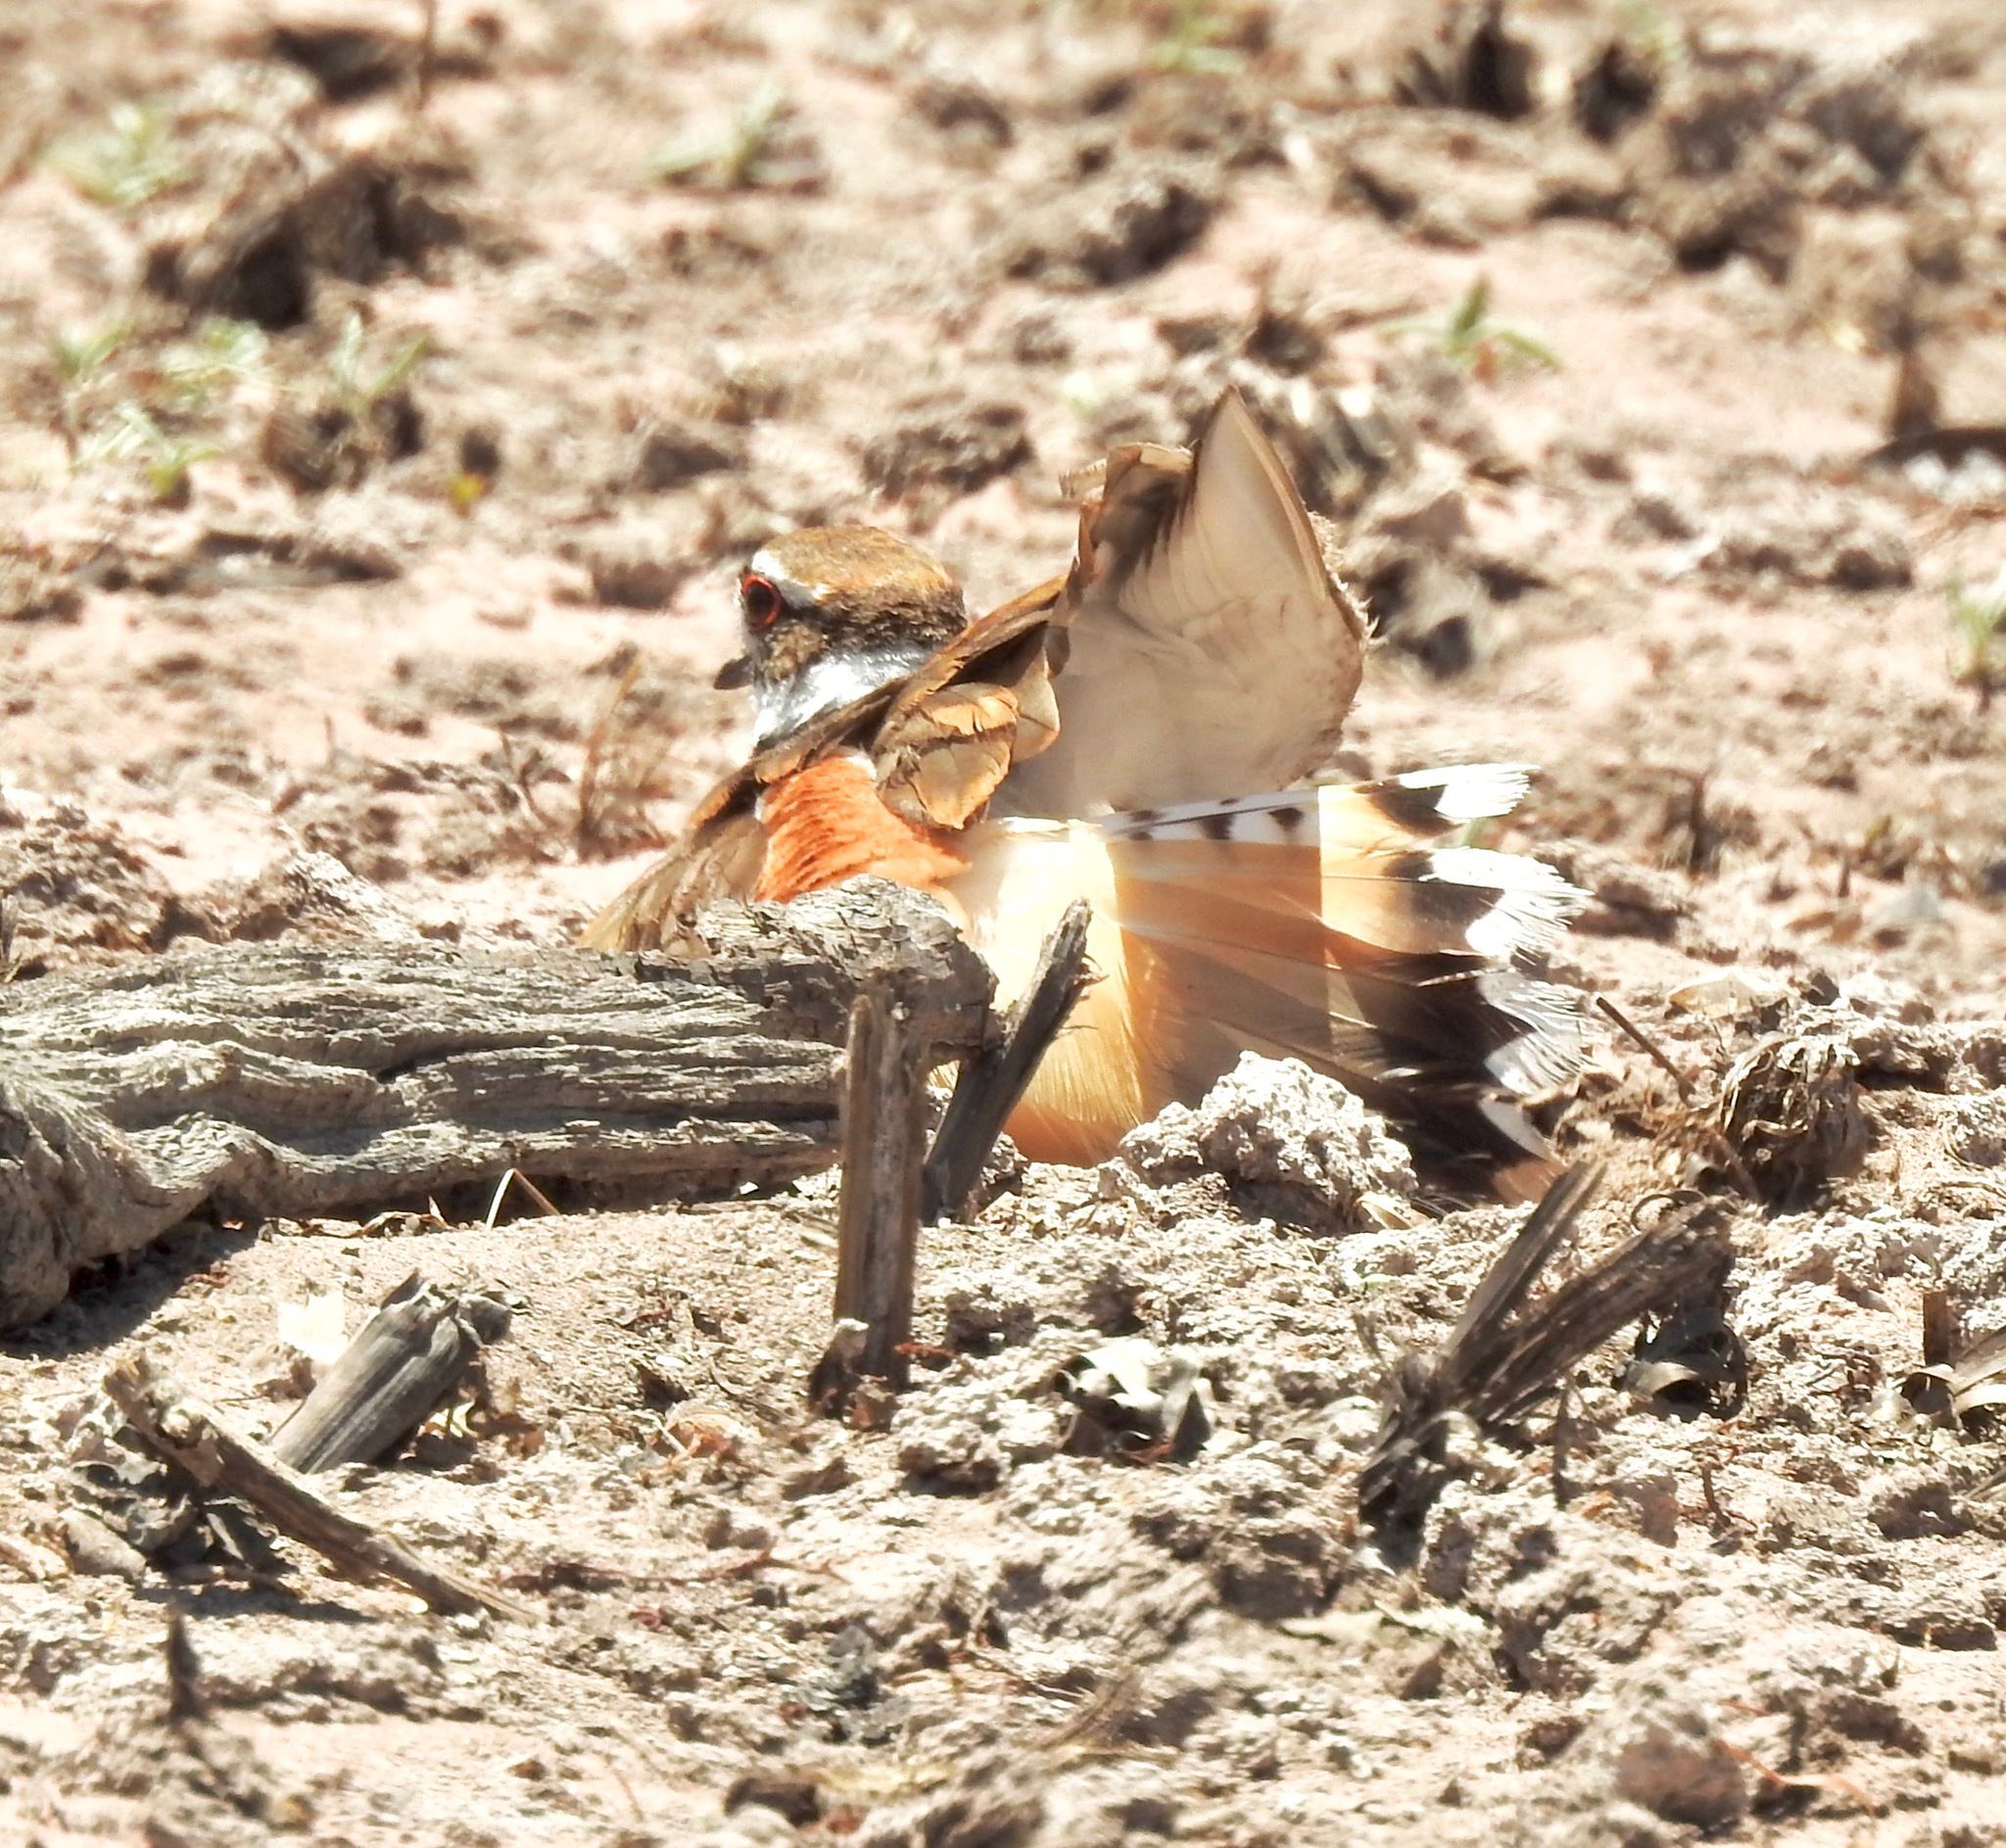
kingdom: Animalia
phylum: Chordata
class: Aves
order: Charadriiformes
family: Charadriidae
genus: Charadrius
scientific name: Charadrius vociferus
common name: Killdeer
